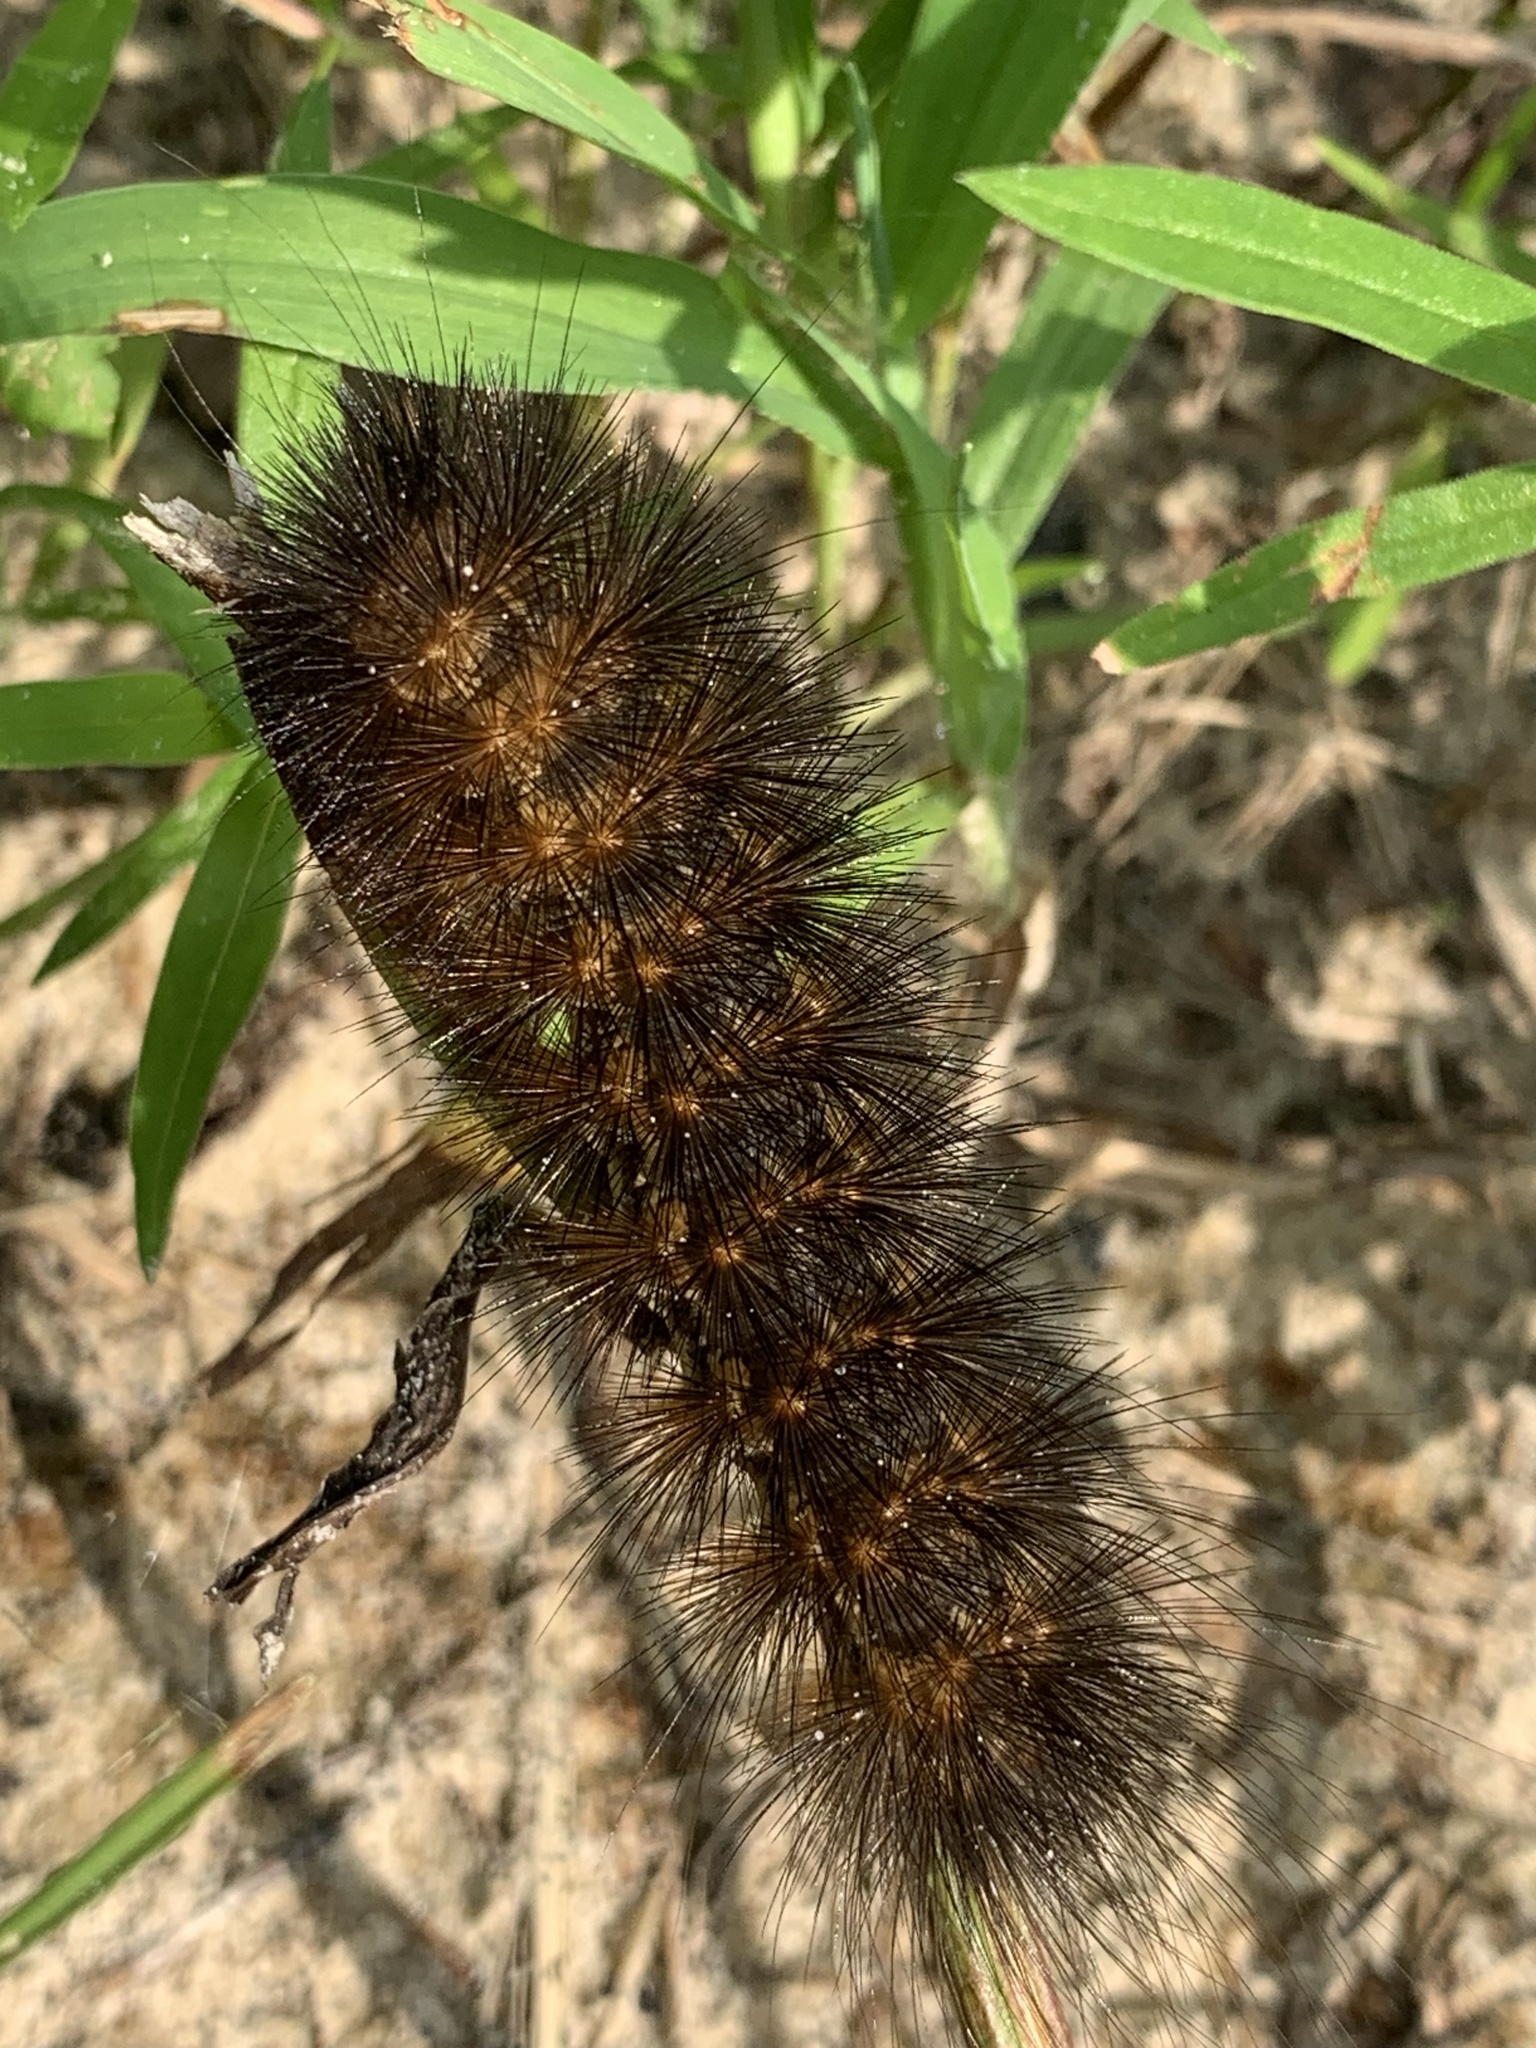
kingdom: Animalia
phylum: Arthropoda
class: Insecta
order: Lepidoptera
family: Erebidae
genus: Estigmene
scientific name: Estigmene acrea
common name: Salt marsh moth
